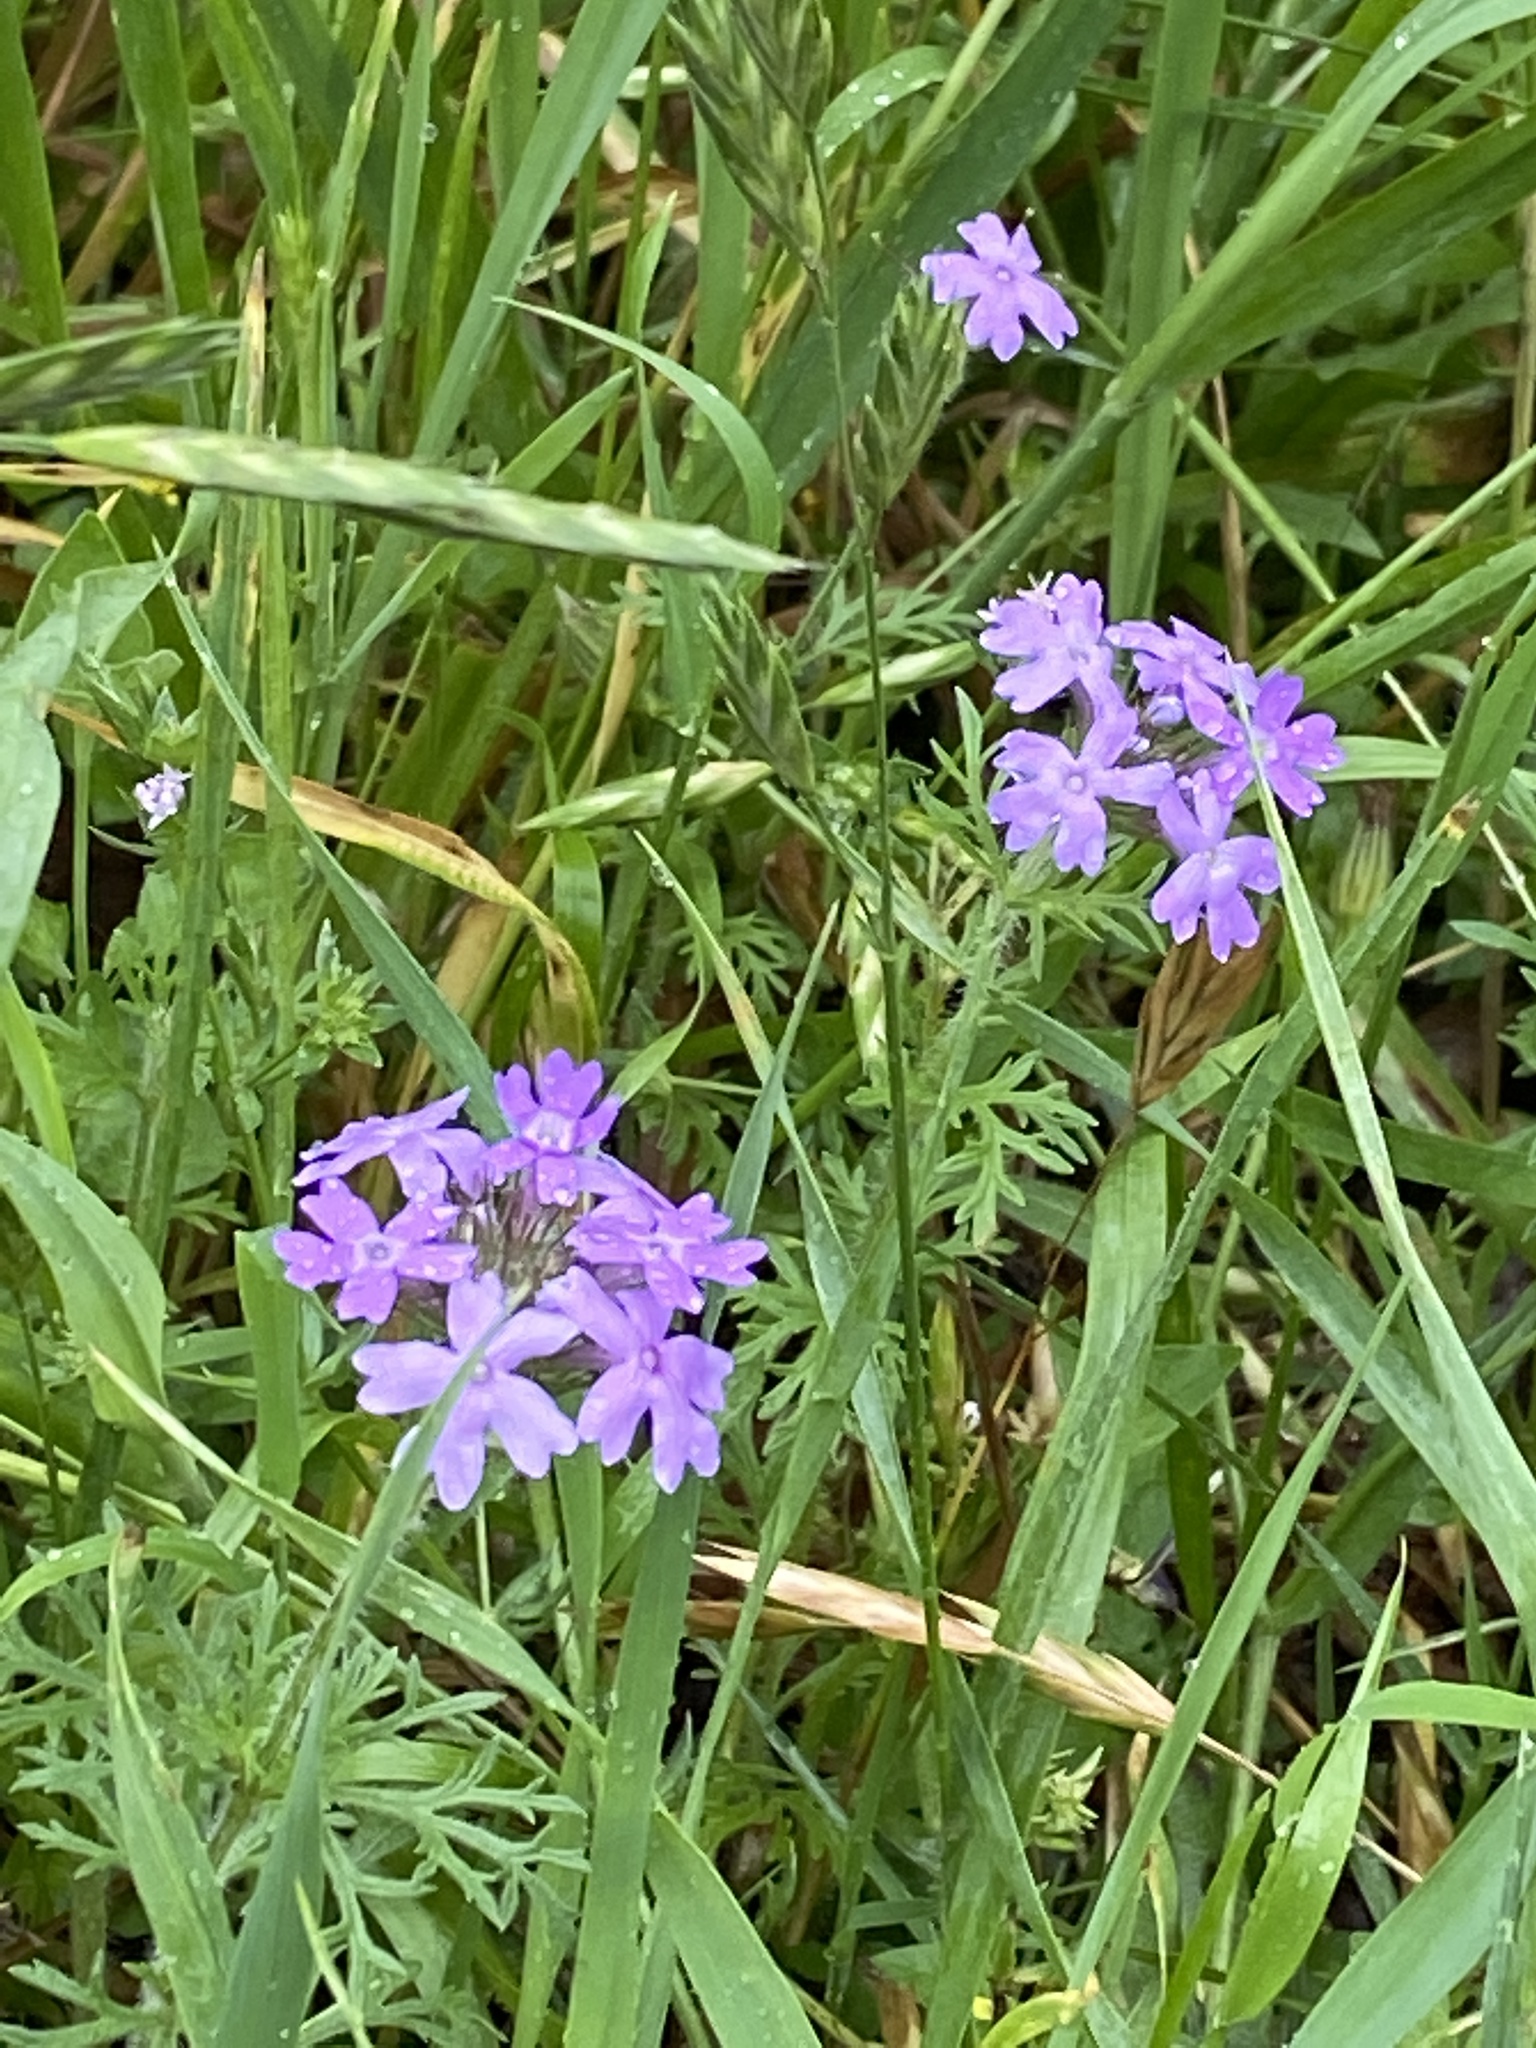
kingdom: Plantae
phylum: Tracheophyta
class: Magnoliopsida
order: Lamiales
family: Verbenaceae
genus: Verbena
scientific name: Verbena bipinnatifida
